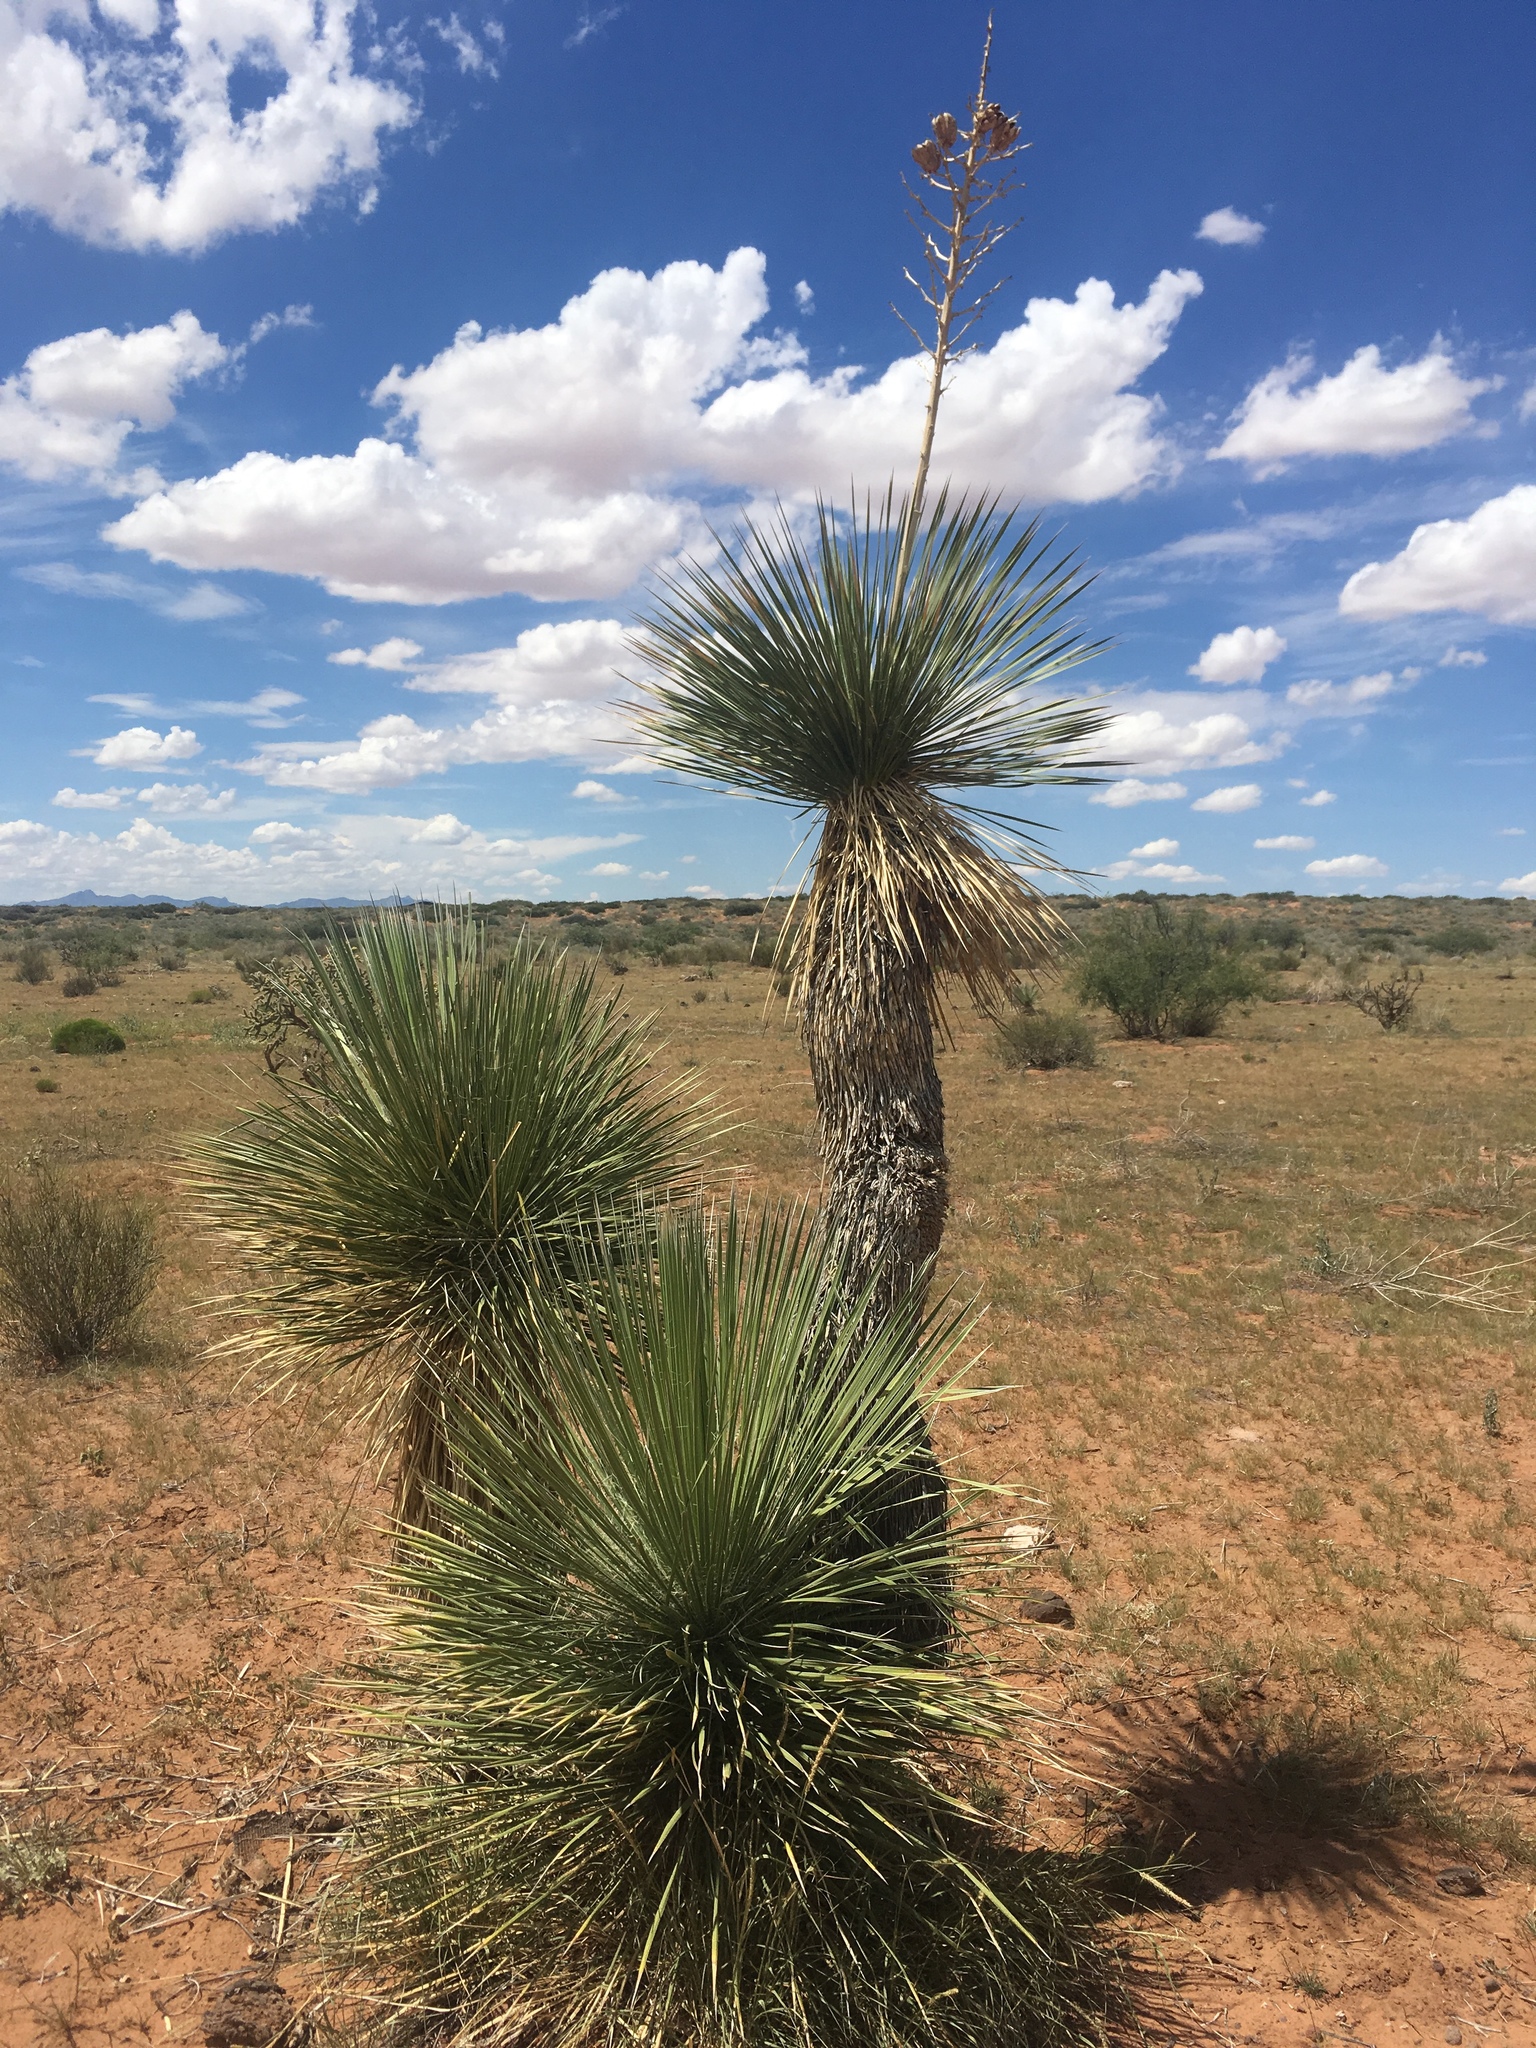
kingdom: Plantae
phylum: Tracheophyta
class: Liliopsida
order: Asparagales
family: Asparagaceae
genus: Yucca
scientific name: Yucca elata
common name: Palmella
